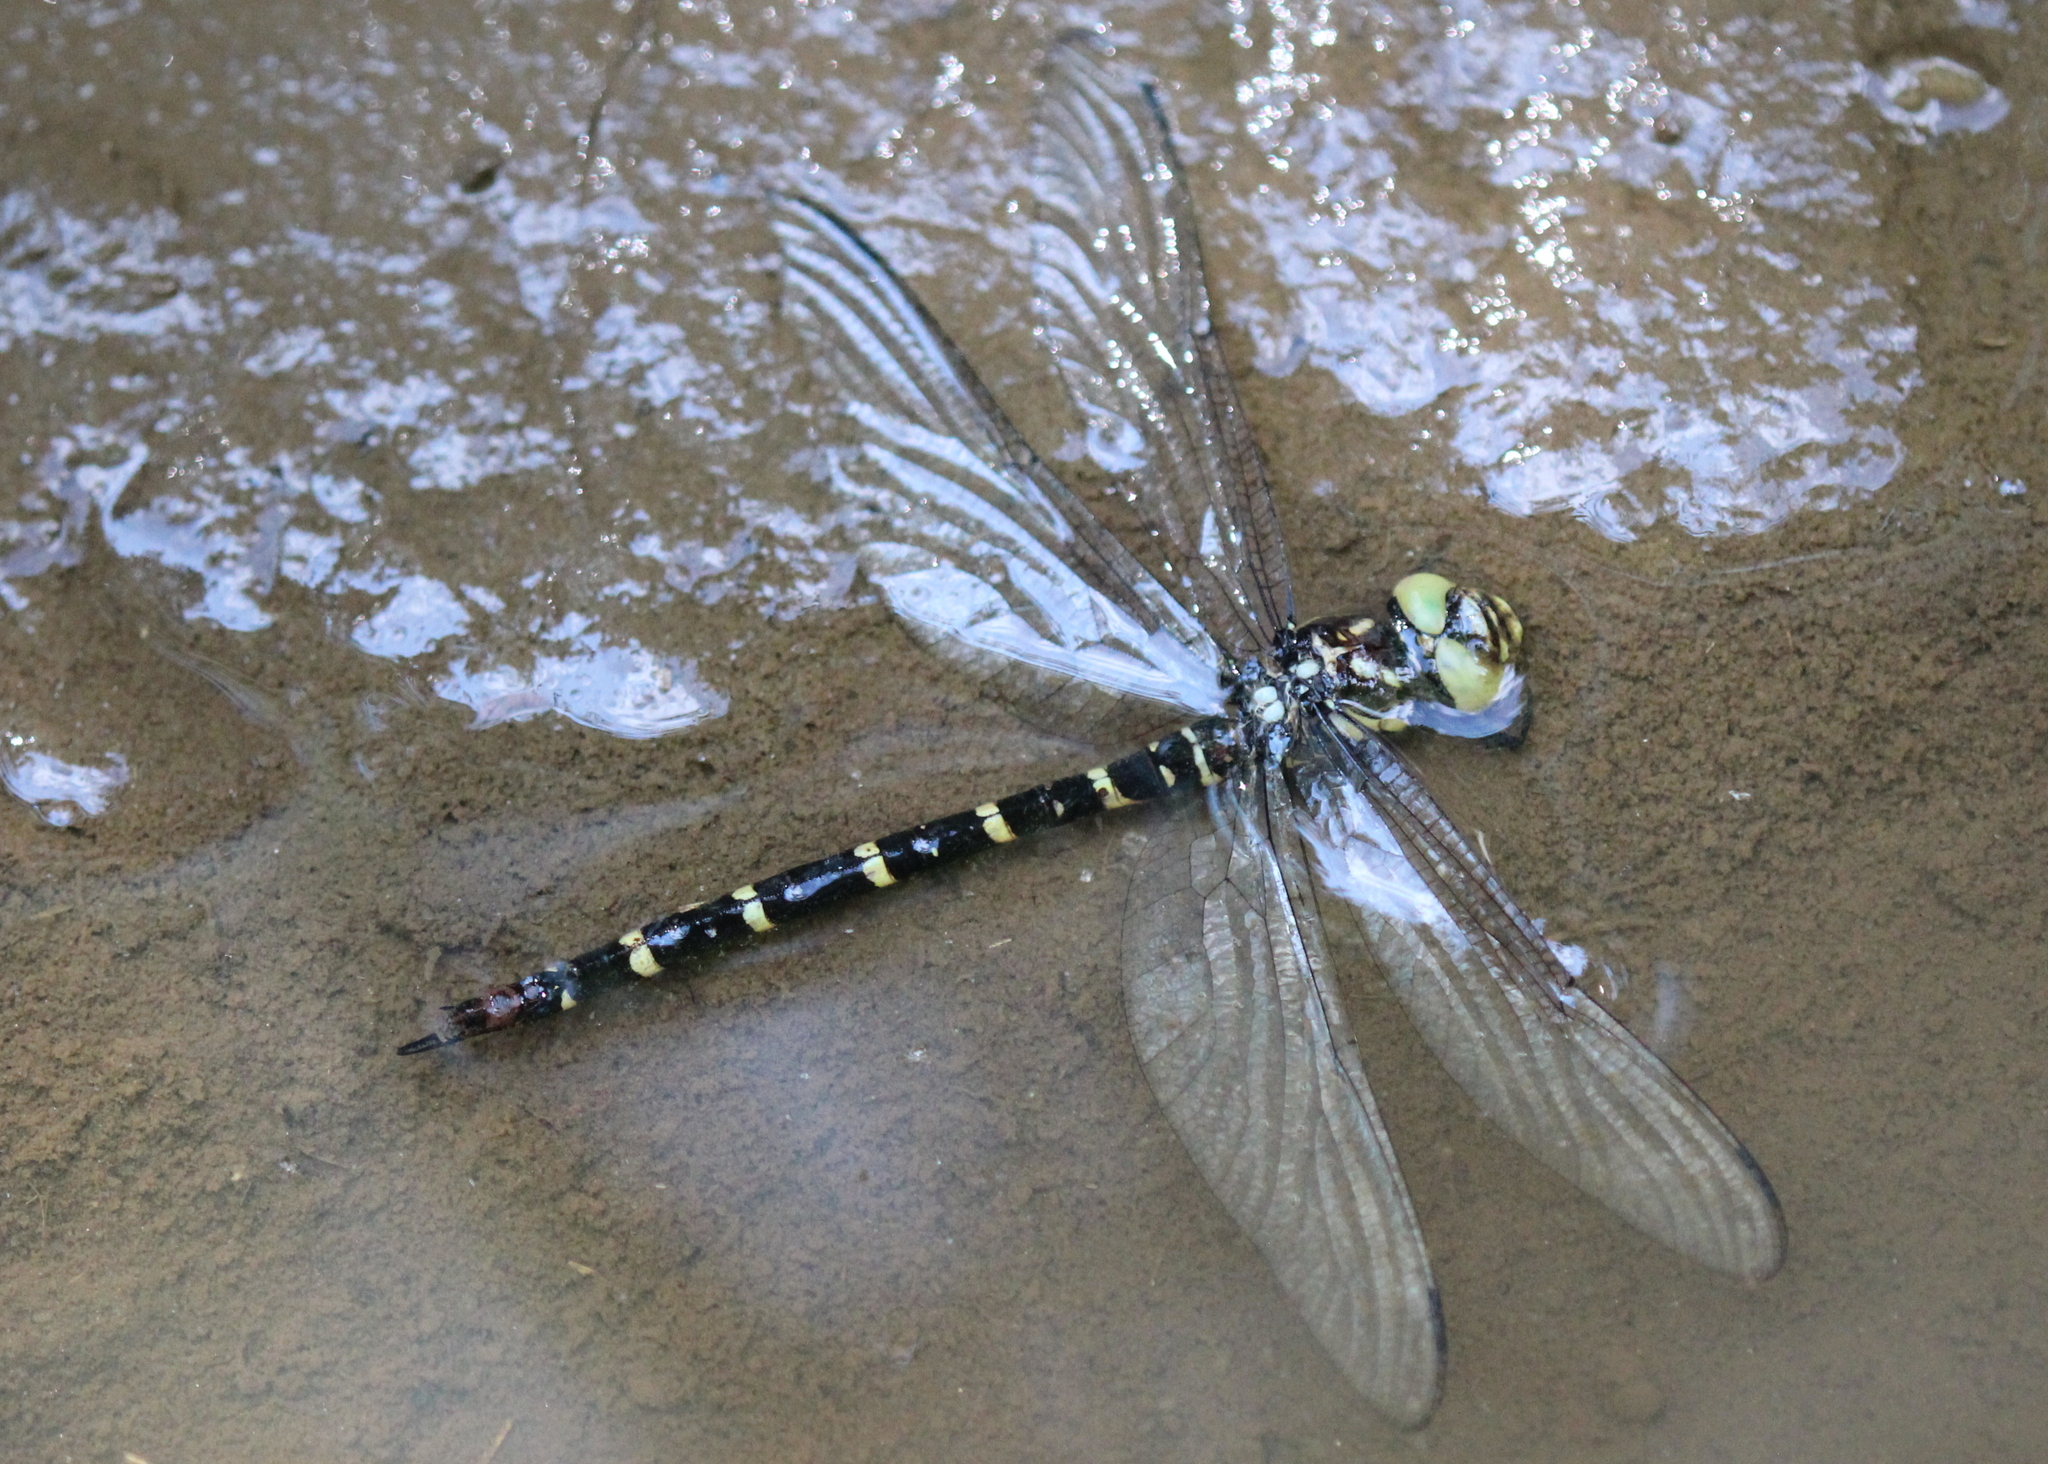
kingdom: Animalia
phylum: Arthropoda
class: Insecta
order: Odonata
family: Cordulegastridae
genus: Cordulegaster
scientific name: Cordulegaster erronea
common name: Tiger spiketail
